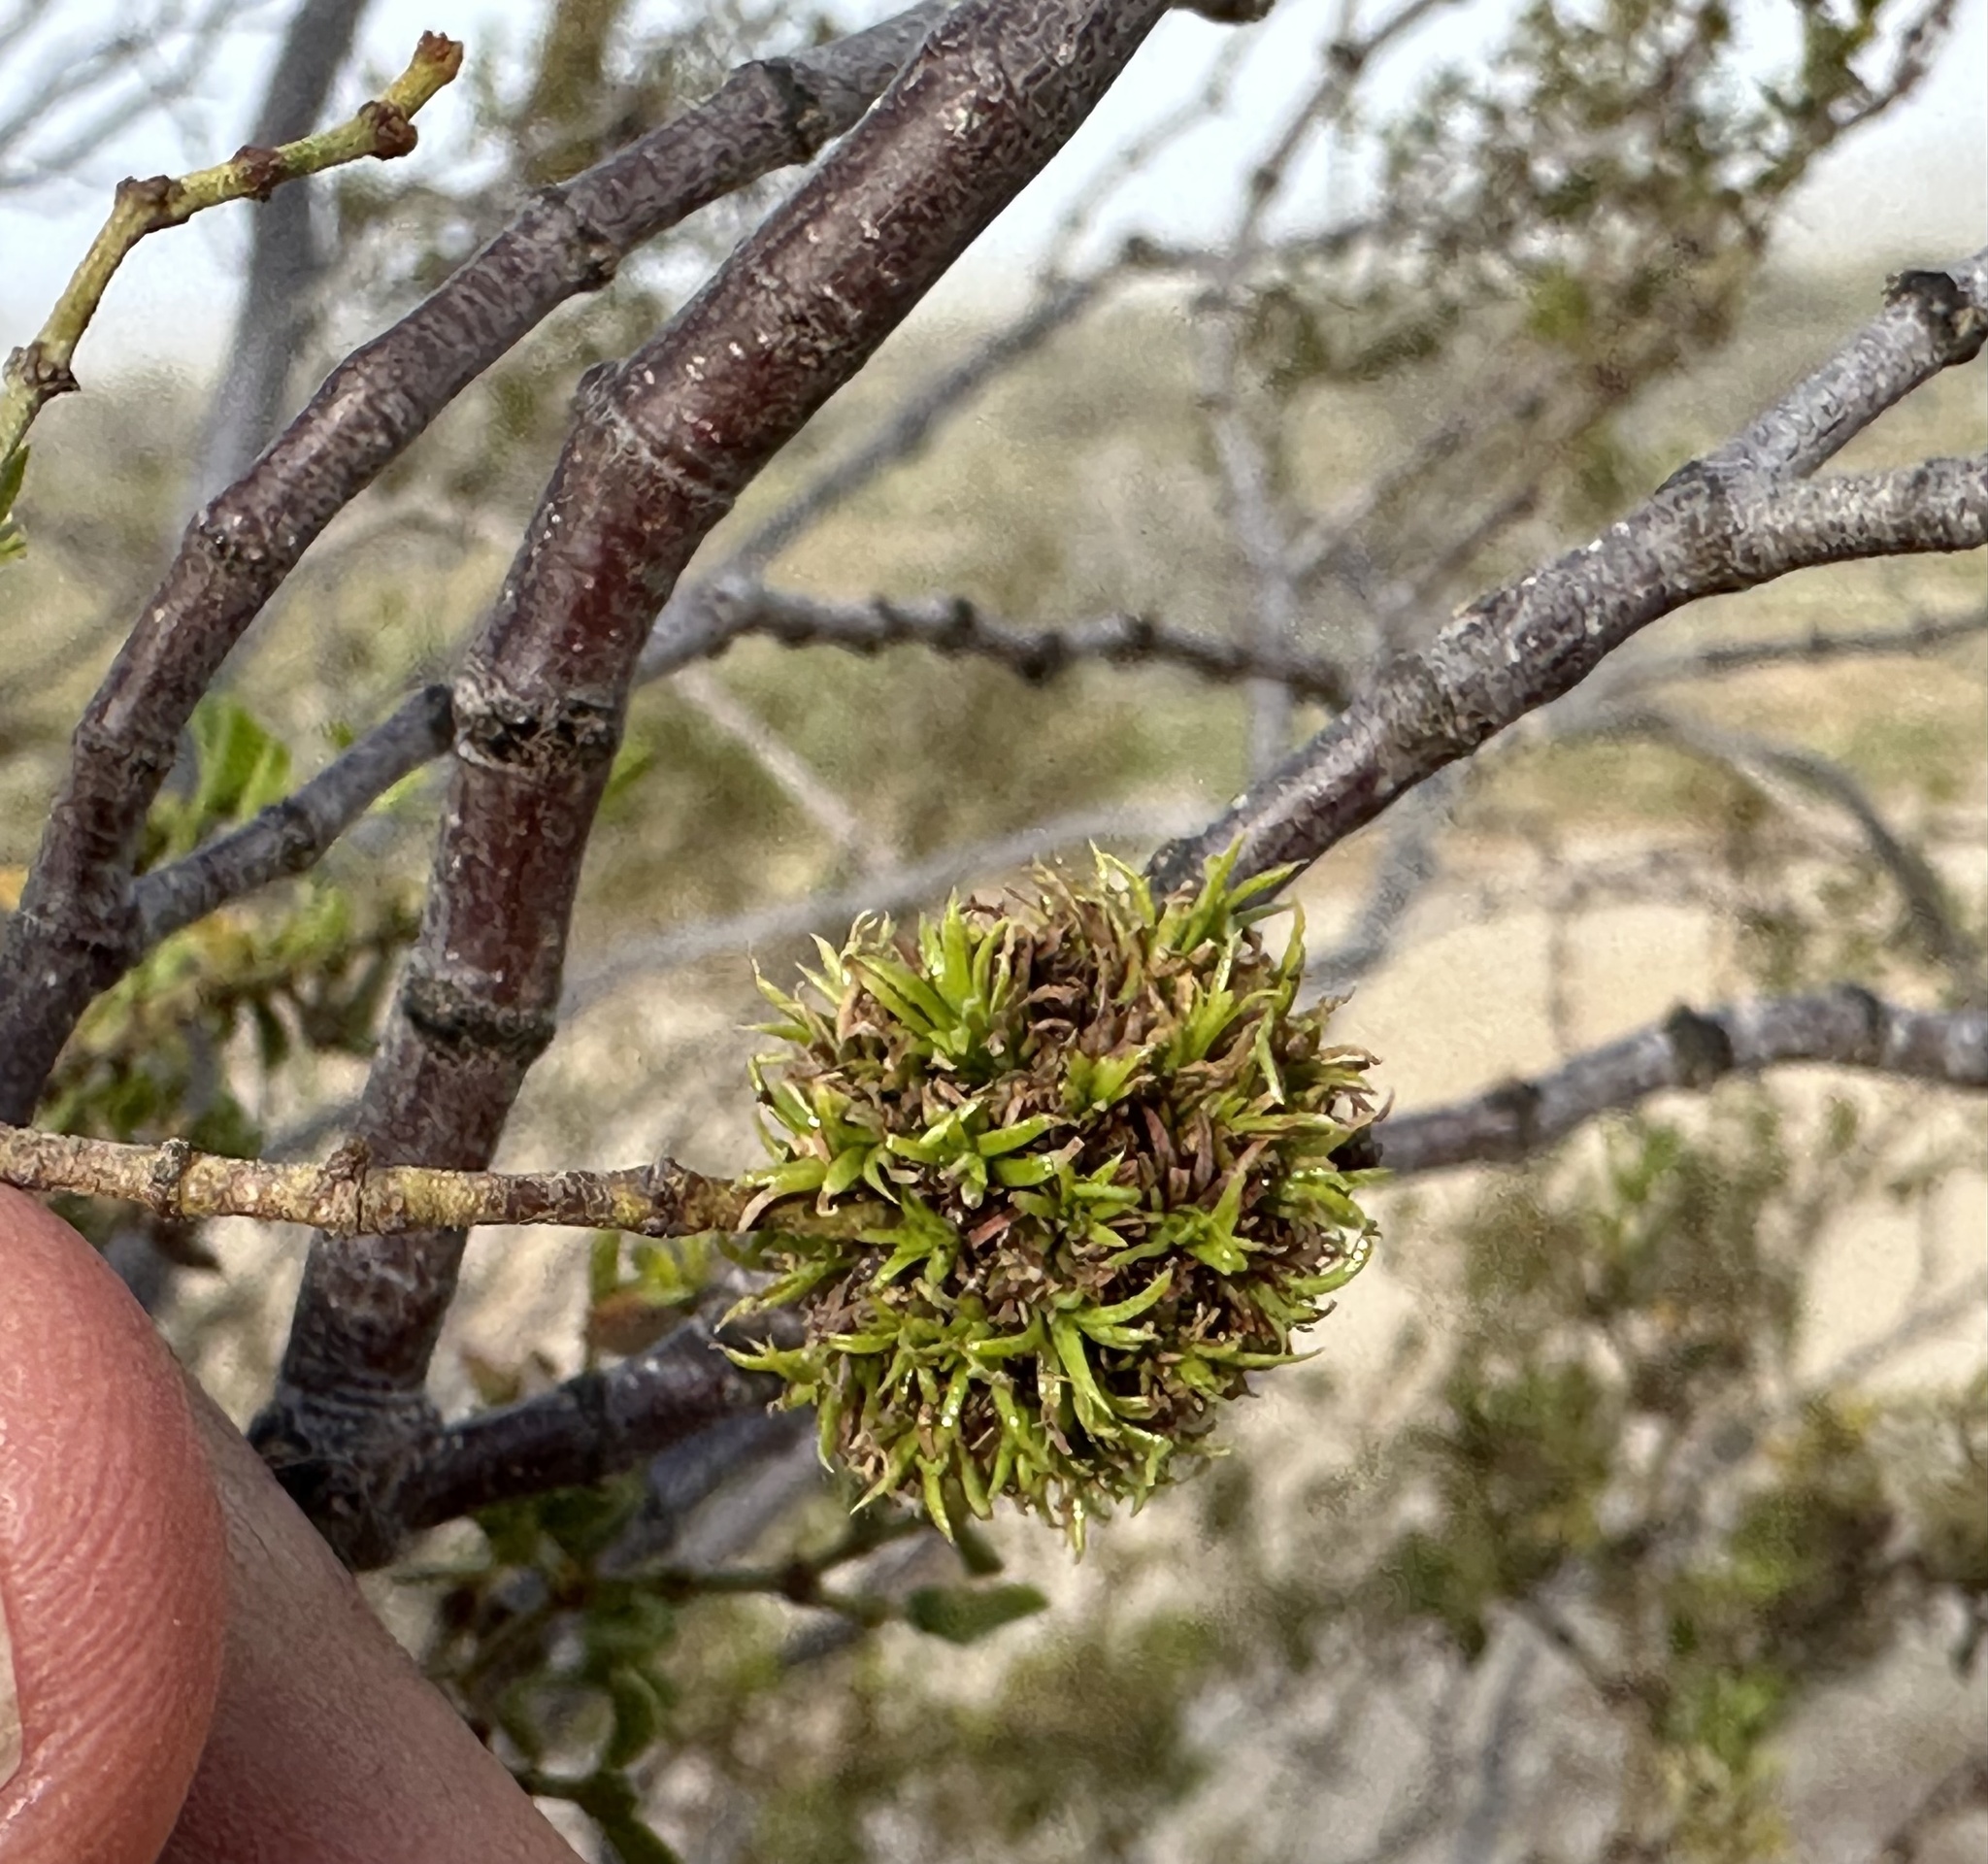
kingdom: Animalia
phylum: Arthropoda
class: Insecta
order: Diptera
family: Cecidomyiidae
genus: Asphondylia
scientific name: Asphondylia auripila
